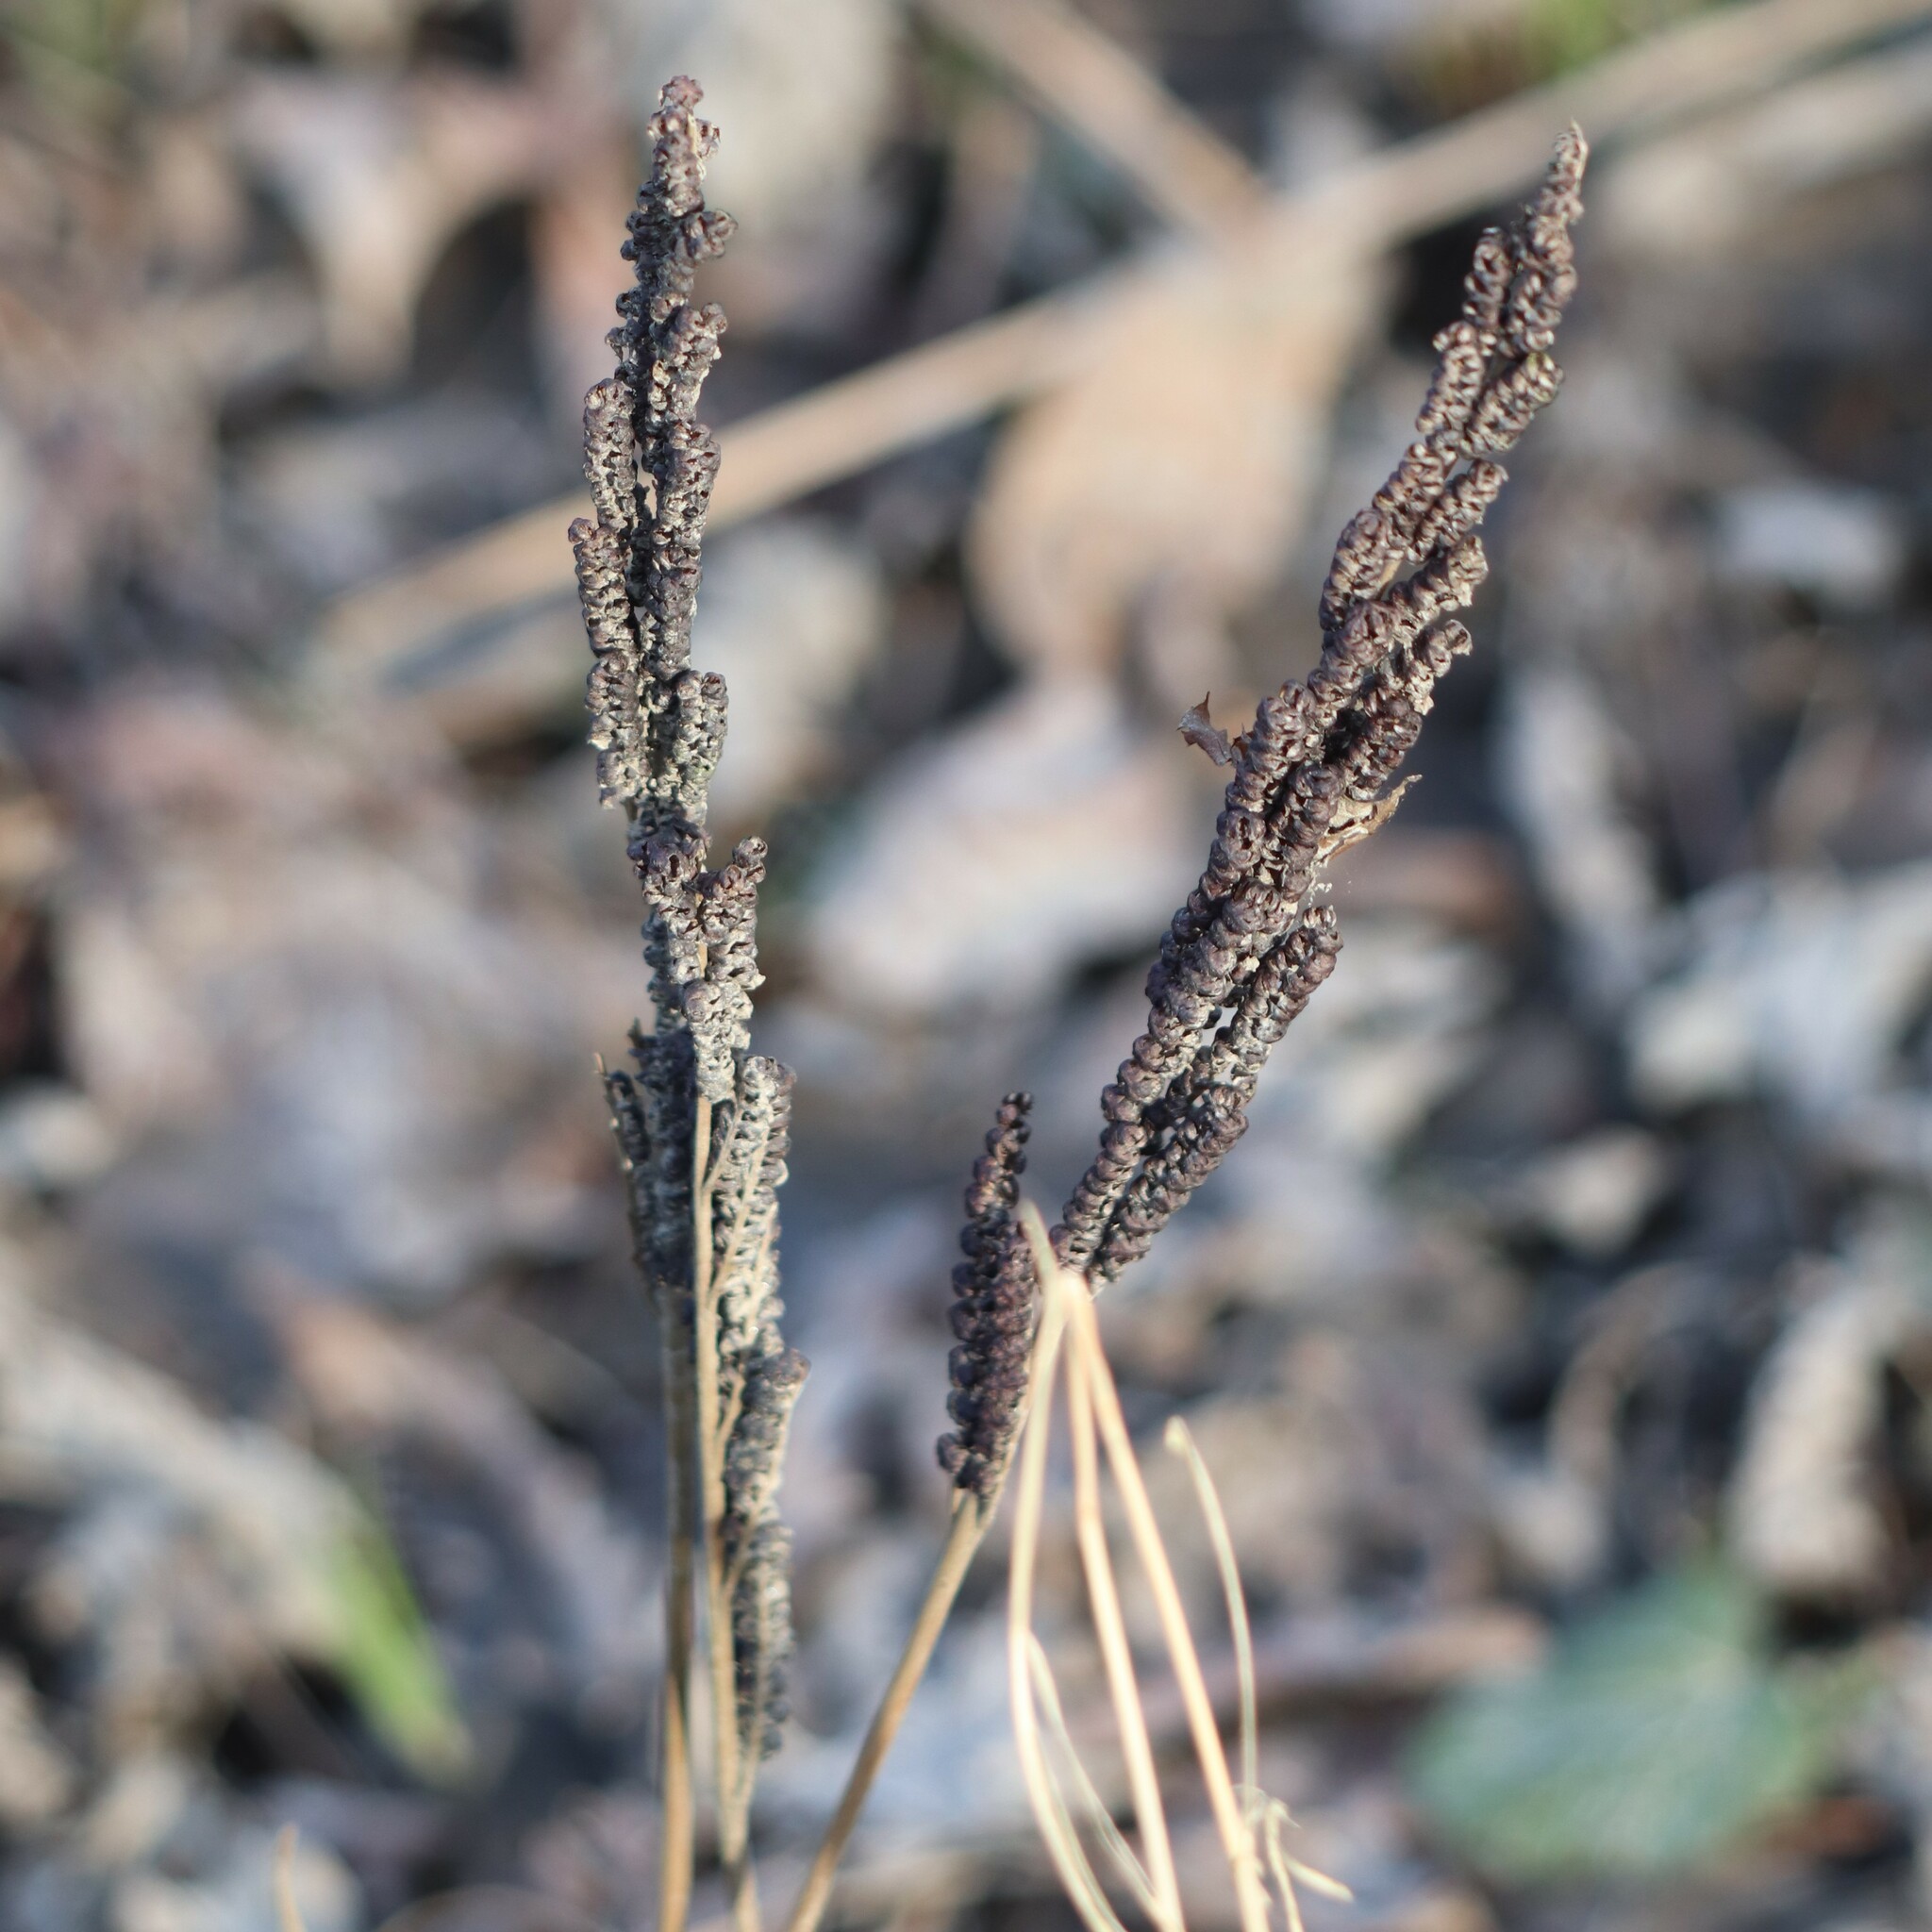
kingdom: Plantae
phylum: Tracheophyta
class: Polypodiopsida
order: Polypodiales
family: Onocleaceae
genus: Onoclea
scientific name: Onoclea sensibilis
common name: Sensitive fern
